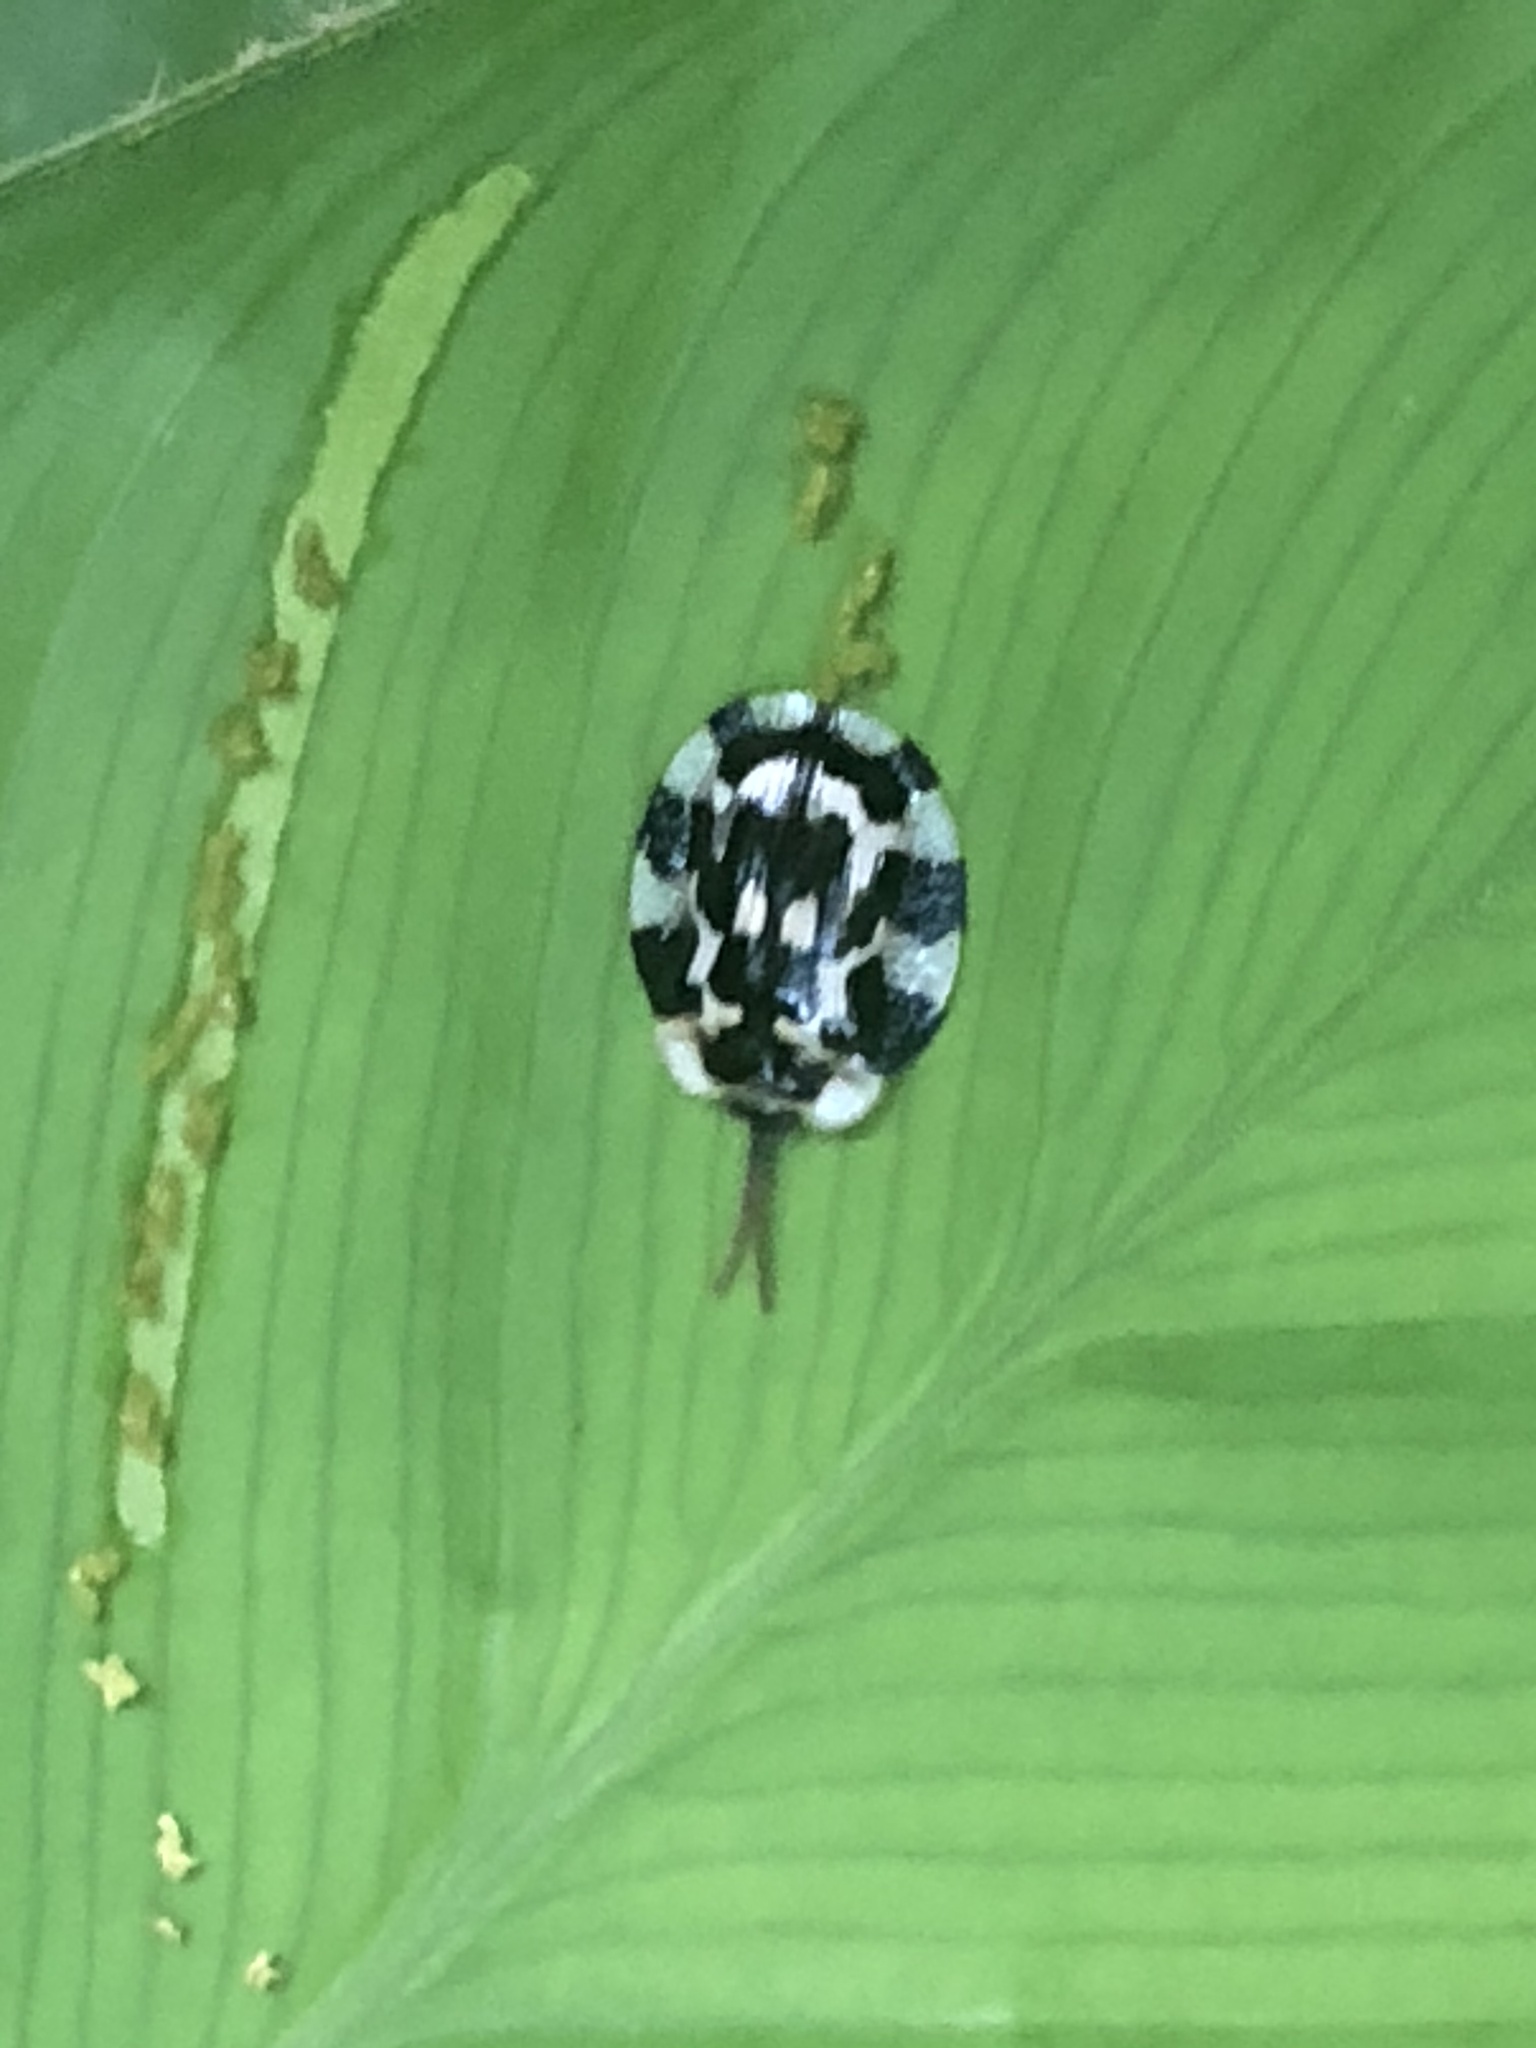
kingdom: Animalia
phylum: Arthropoda
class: Insecta
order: Coleoptera
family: Chrysomelidae
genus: Aslamidium
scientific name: Aslamidium capense
